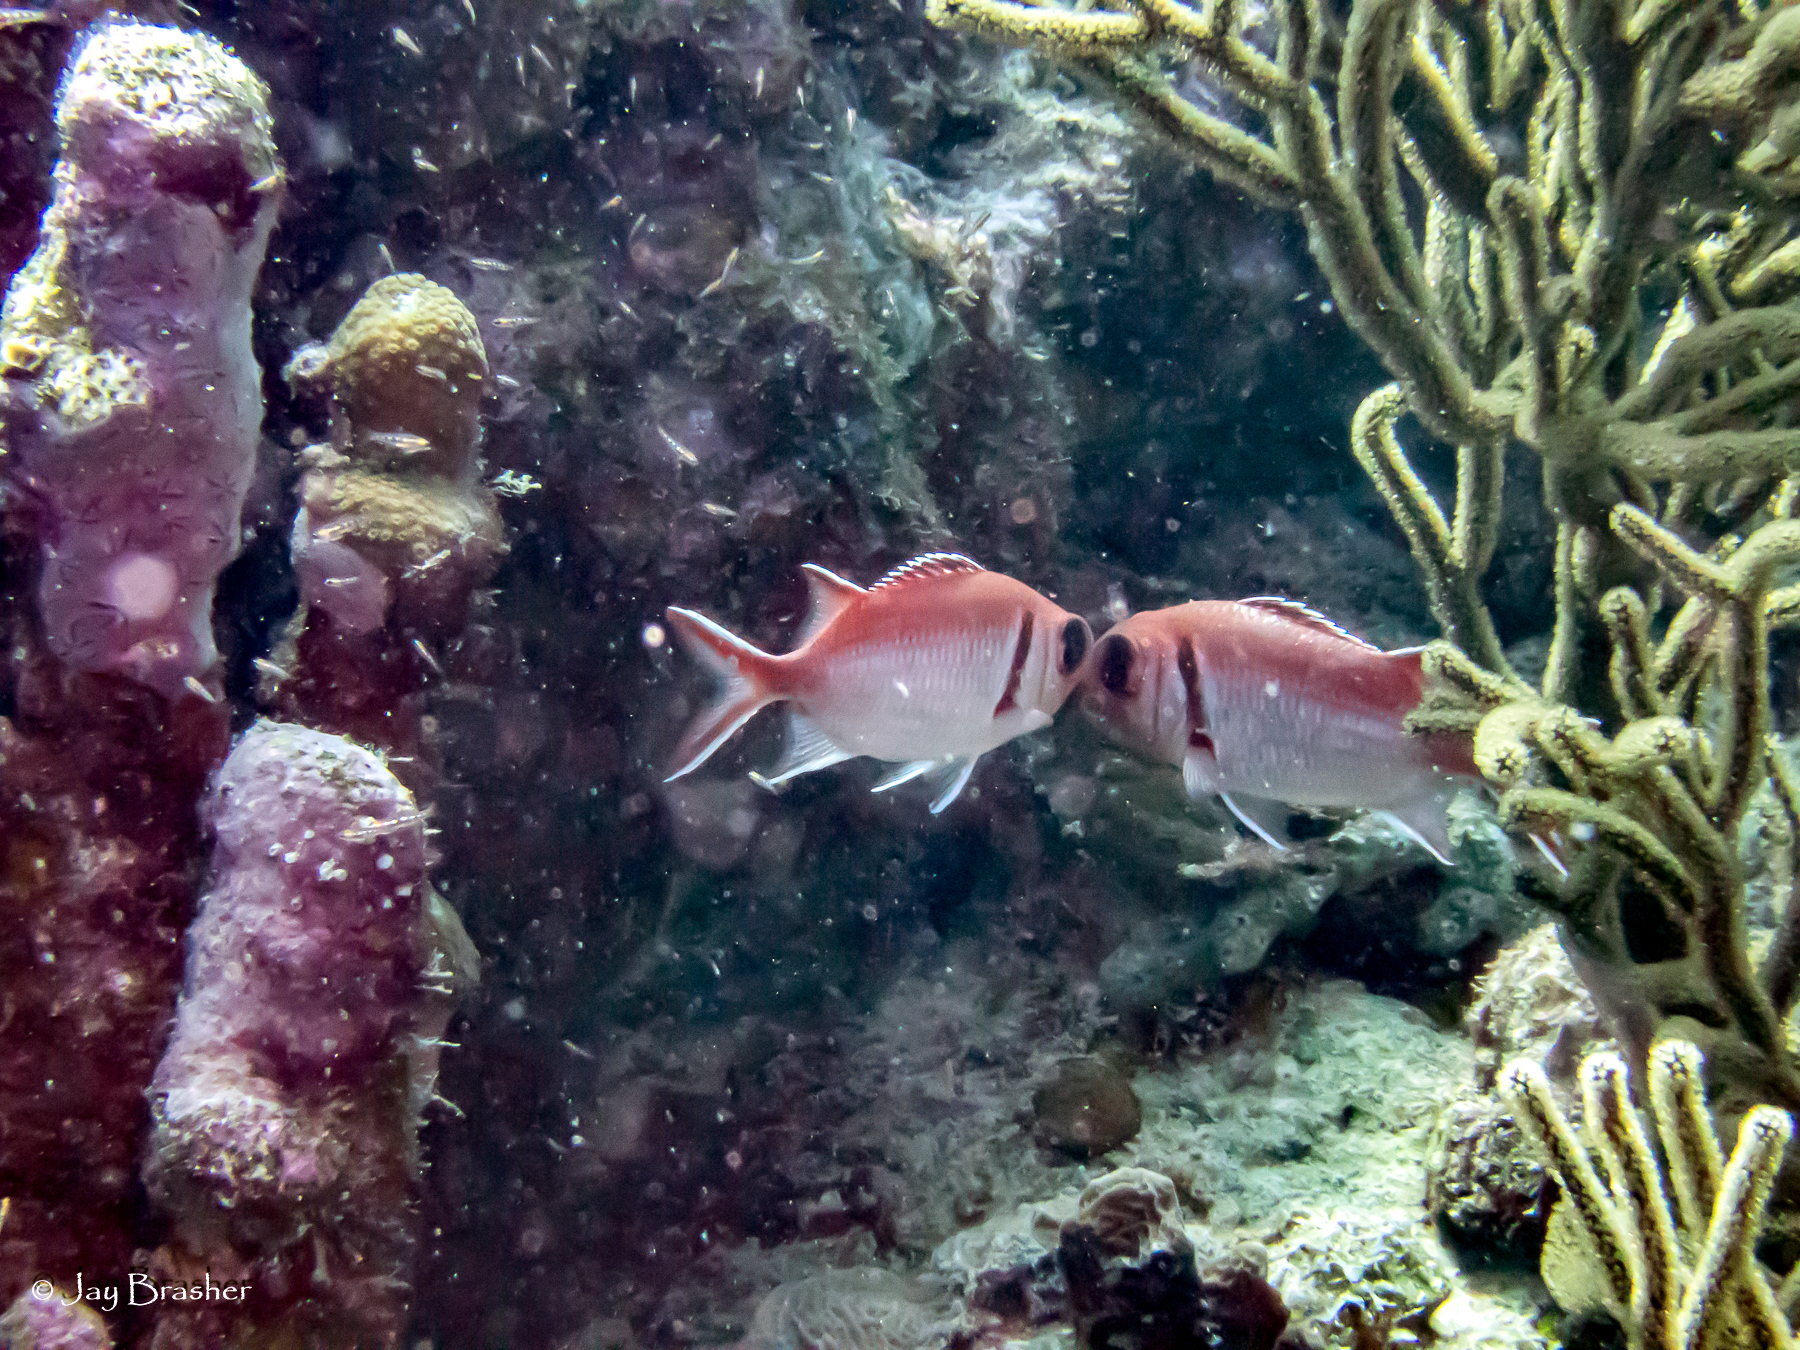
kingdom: Animalia
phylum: Chordata
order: Beryciformes
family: Holocentridae
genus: Myripristis
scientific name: Myripristis jacobus
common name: Blackbar soldierfish
